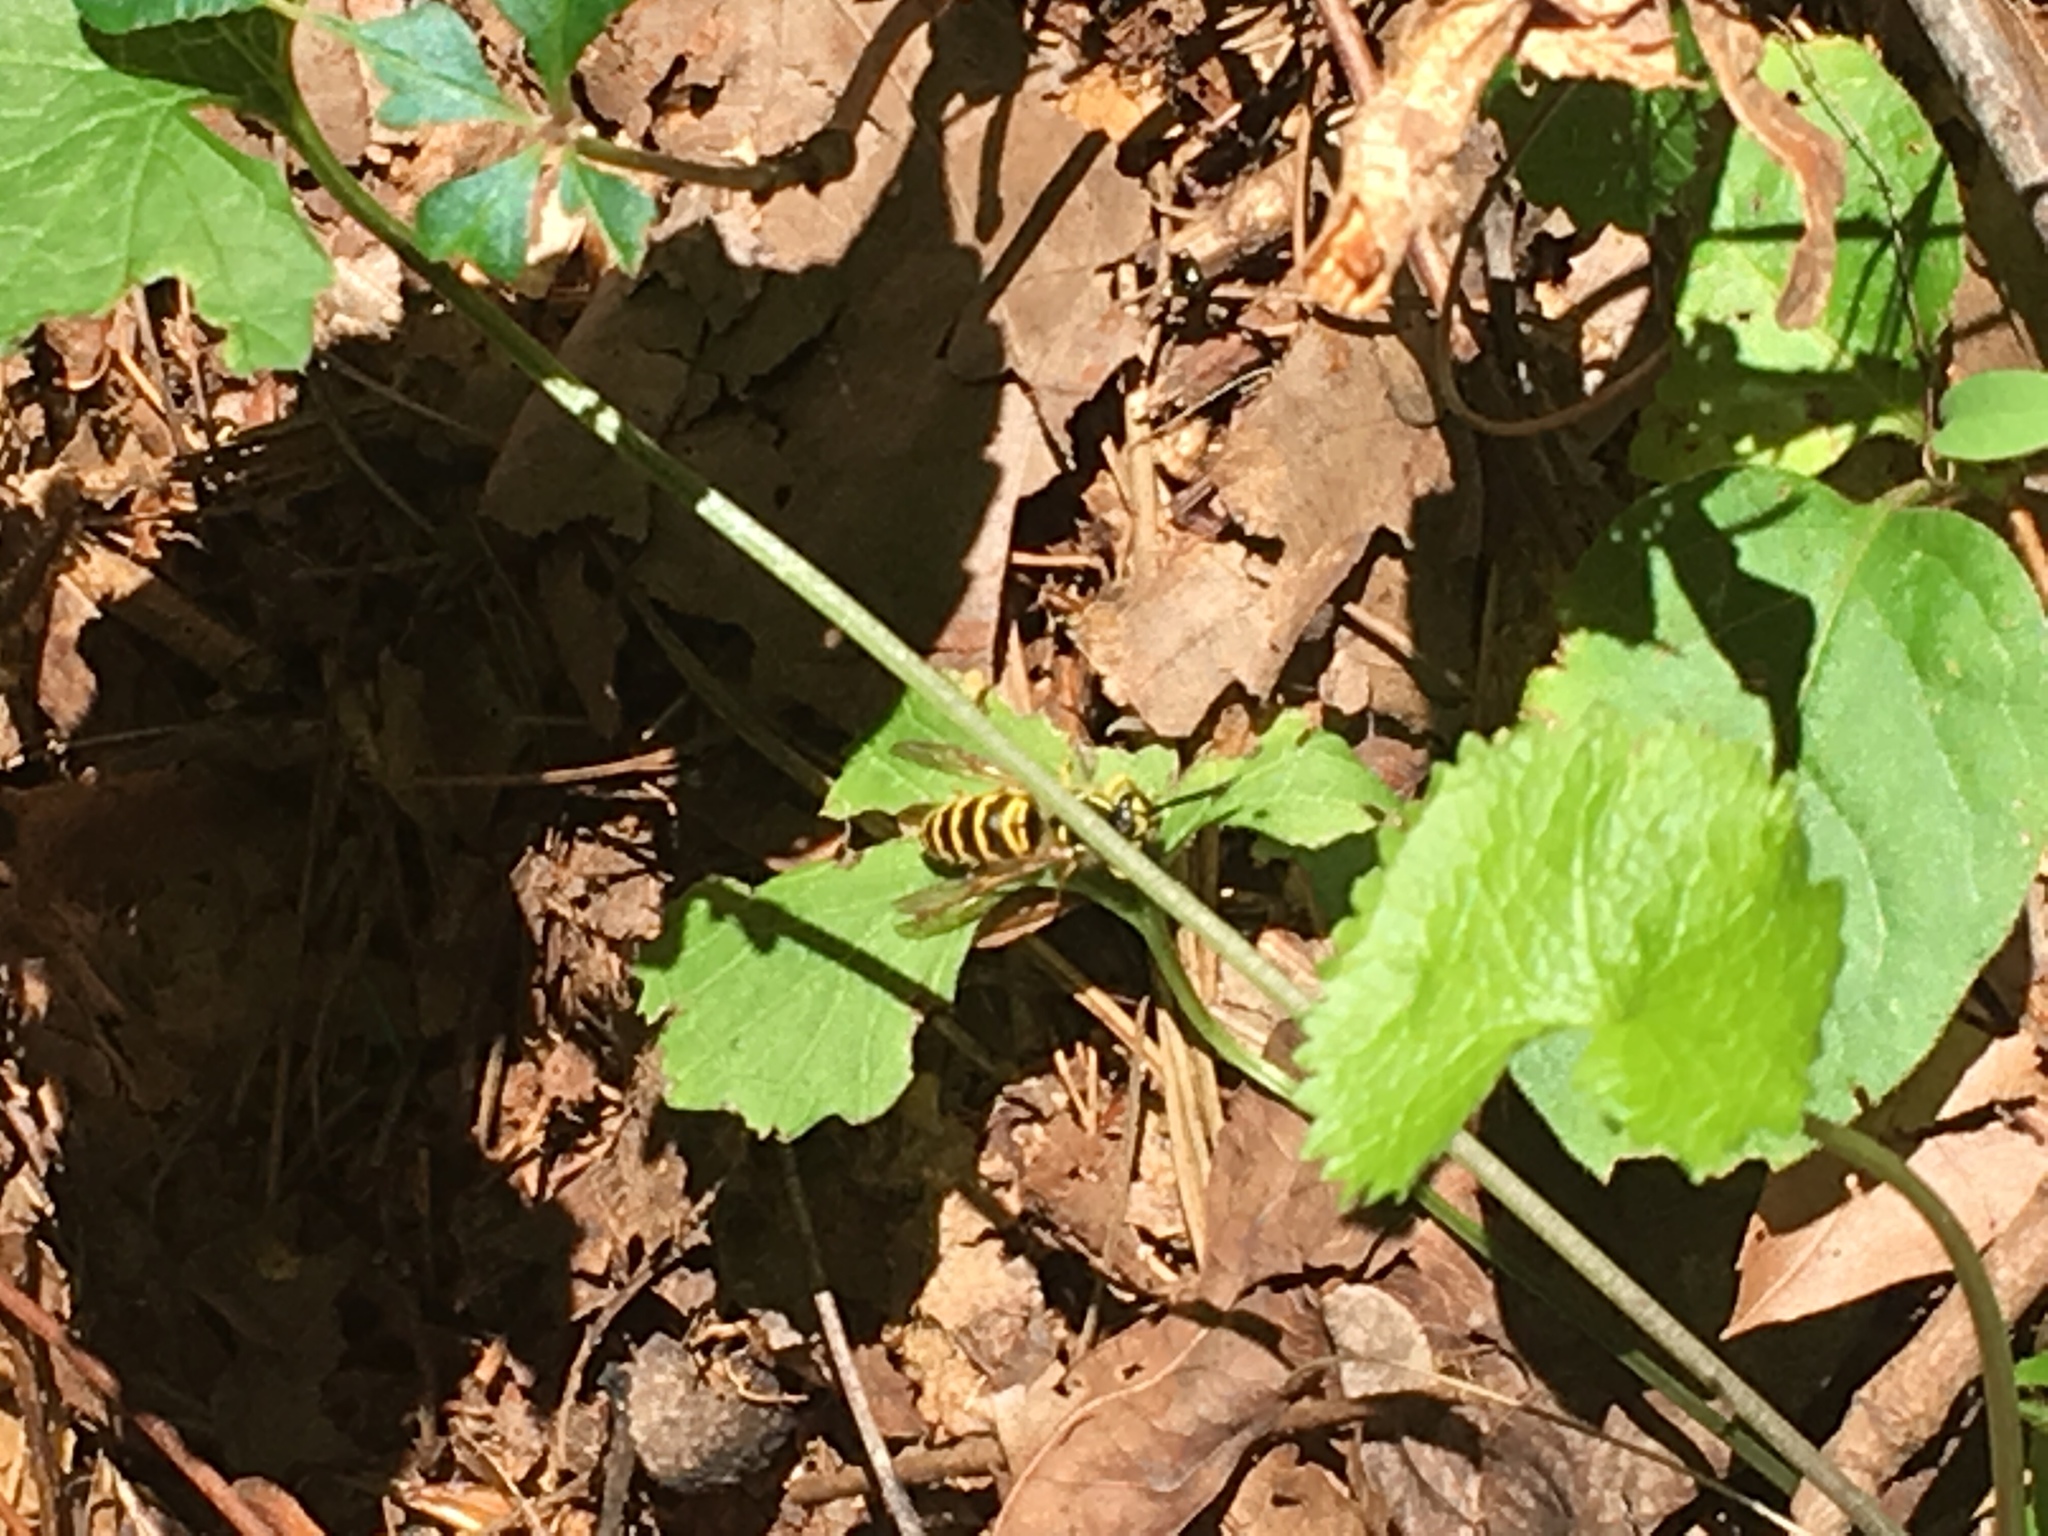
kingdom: Animalia
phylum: Arthropoda
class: Insecta
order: Hymenoptera
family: Vespidae
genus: Vespula
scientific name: Vespula maculifrons
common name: Eastern yellowjacket
